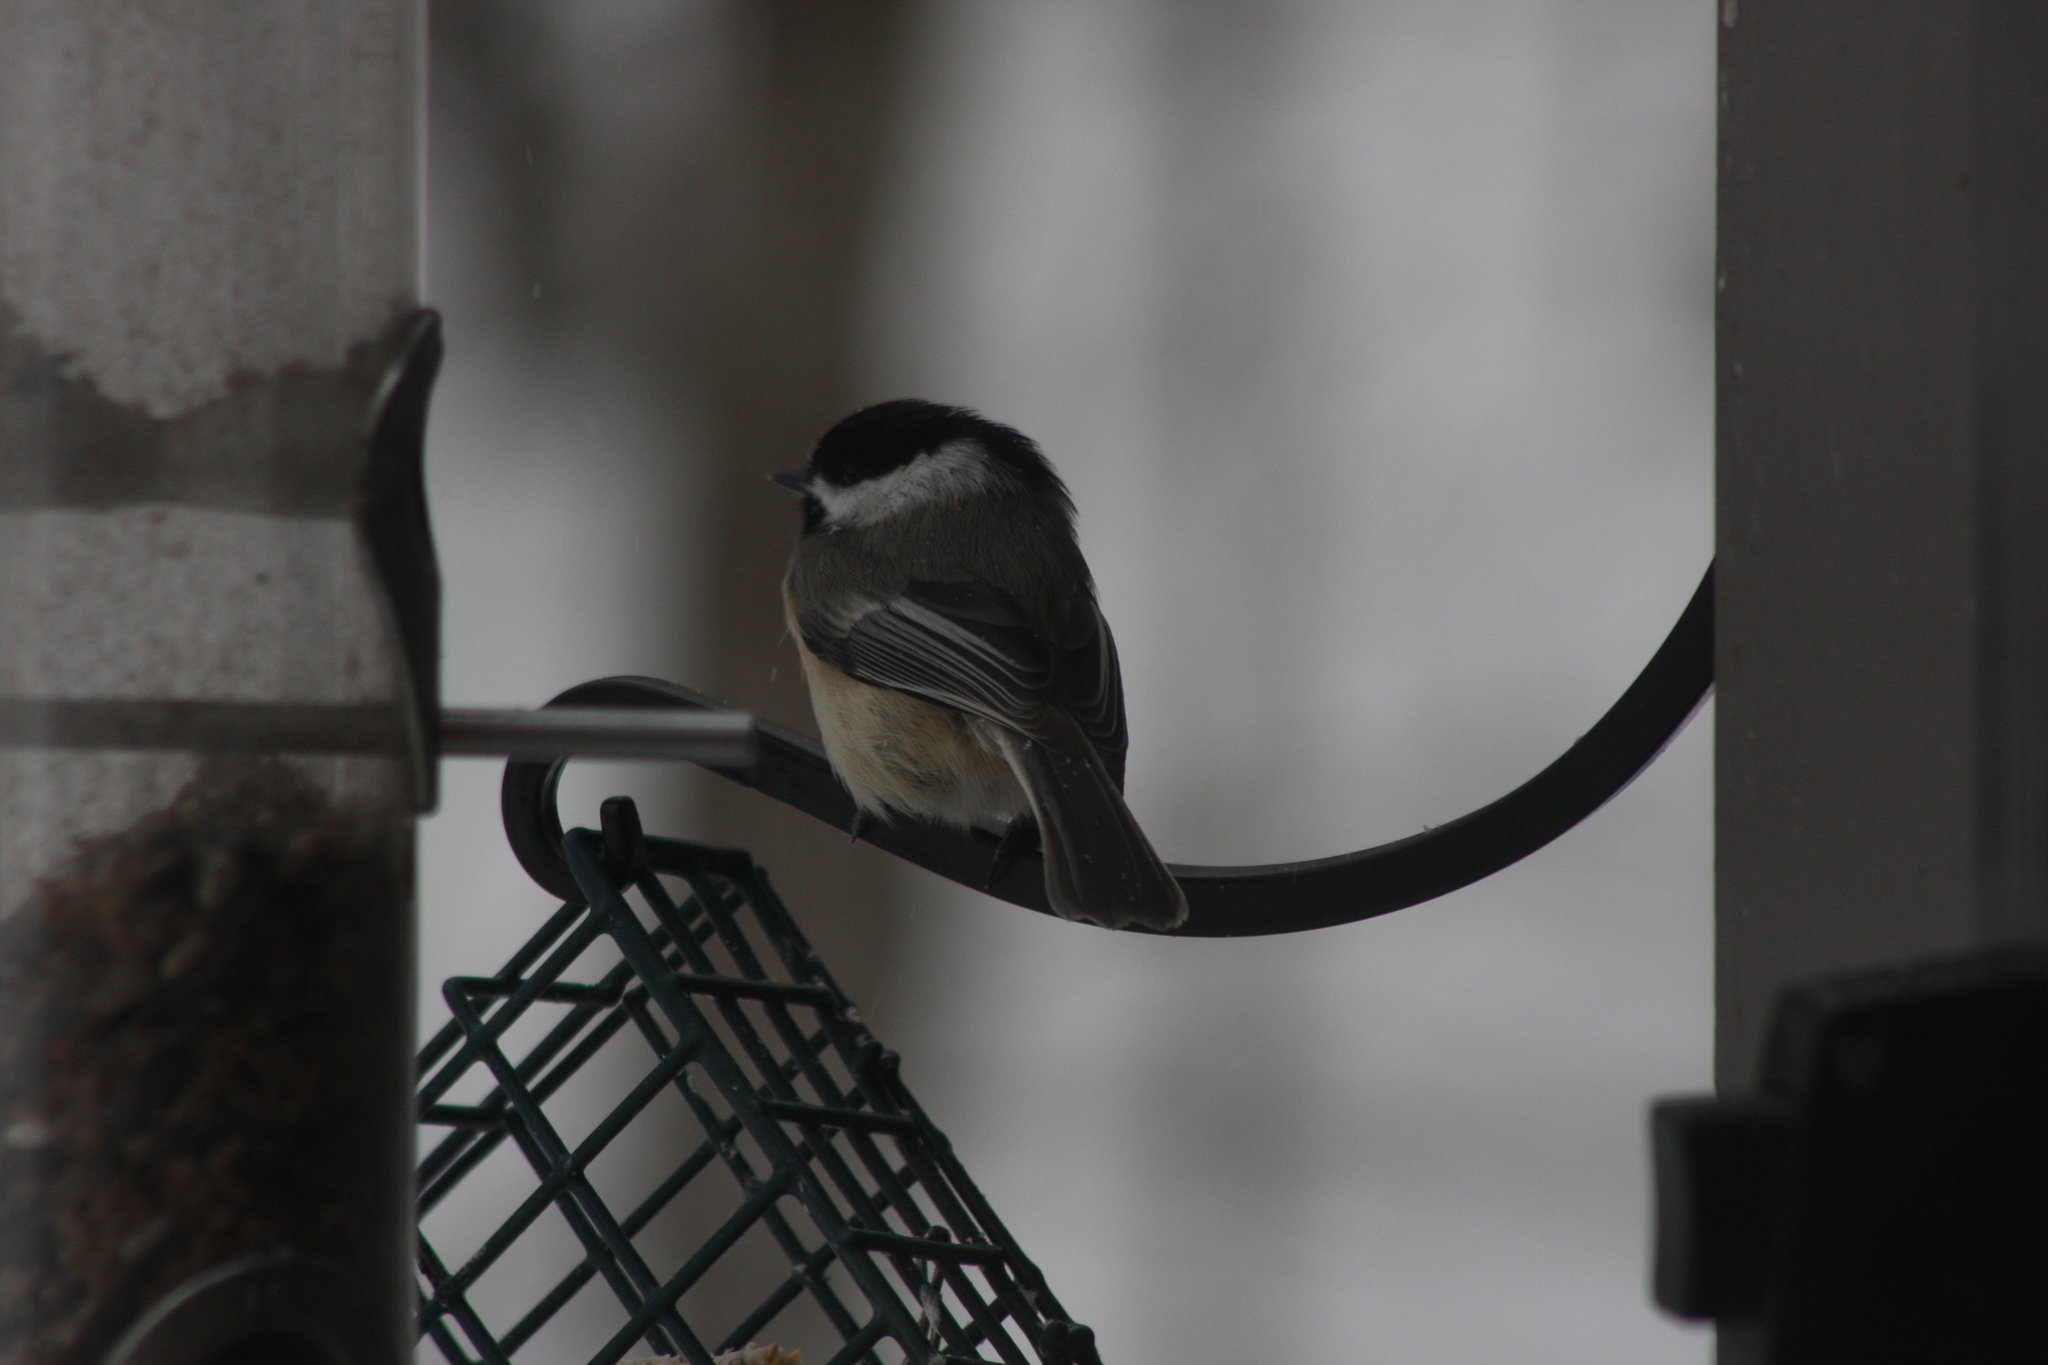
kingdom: Animalia
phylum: Chordata
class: Aves
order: Passeriformes
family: Paridae
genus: Poecile
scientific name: Poecile atricapillus
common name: Black-capped chickadee
